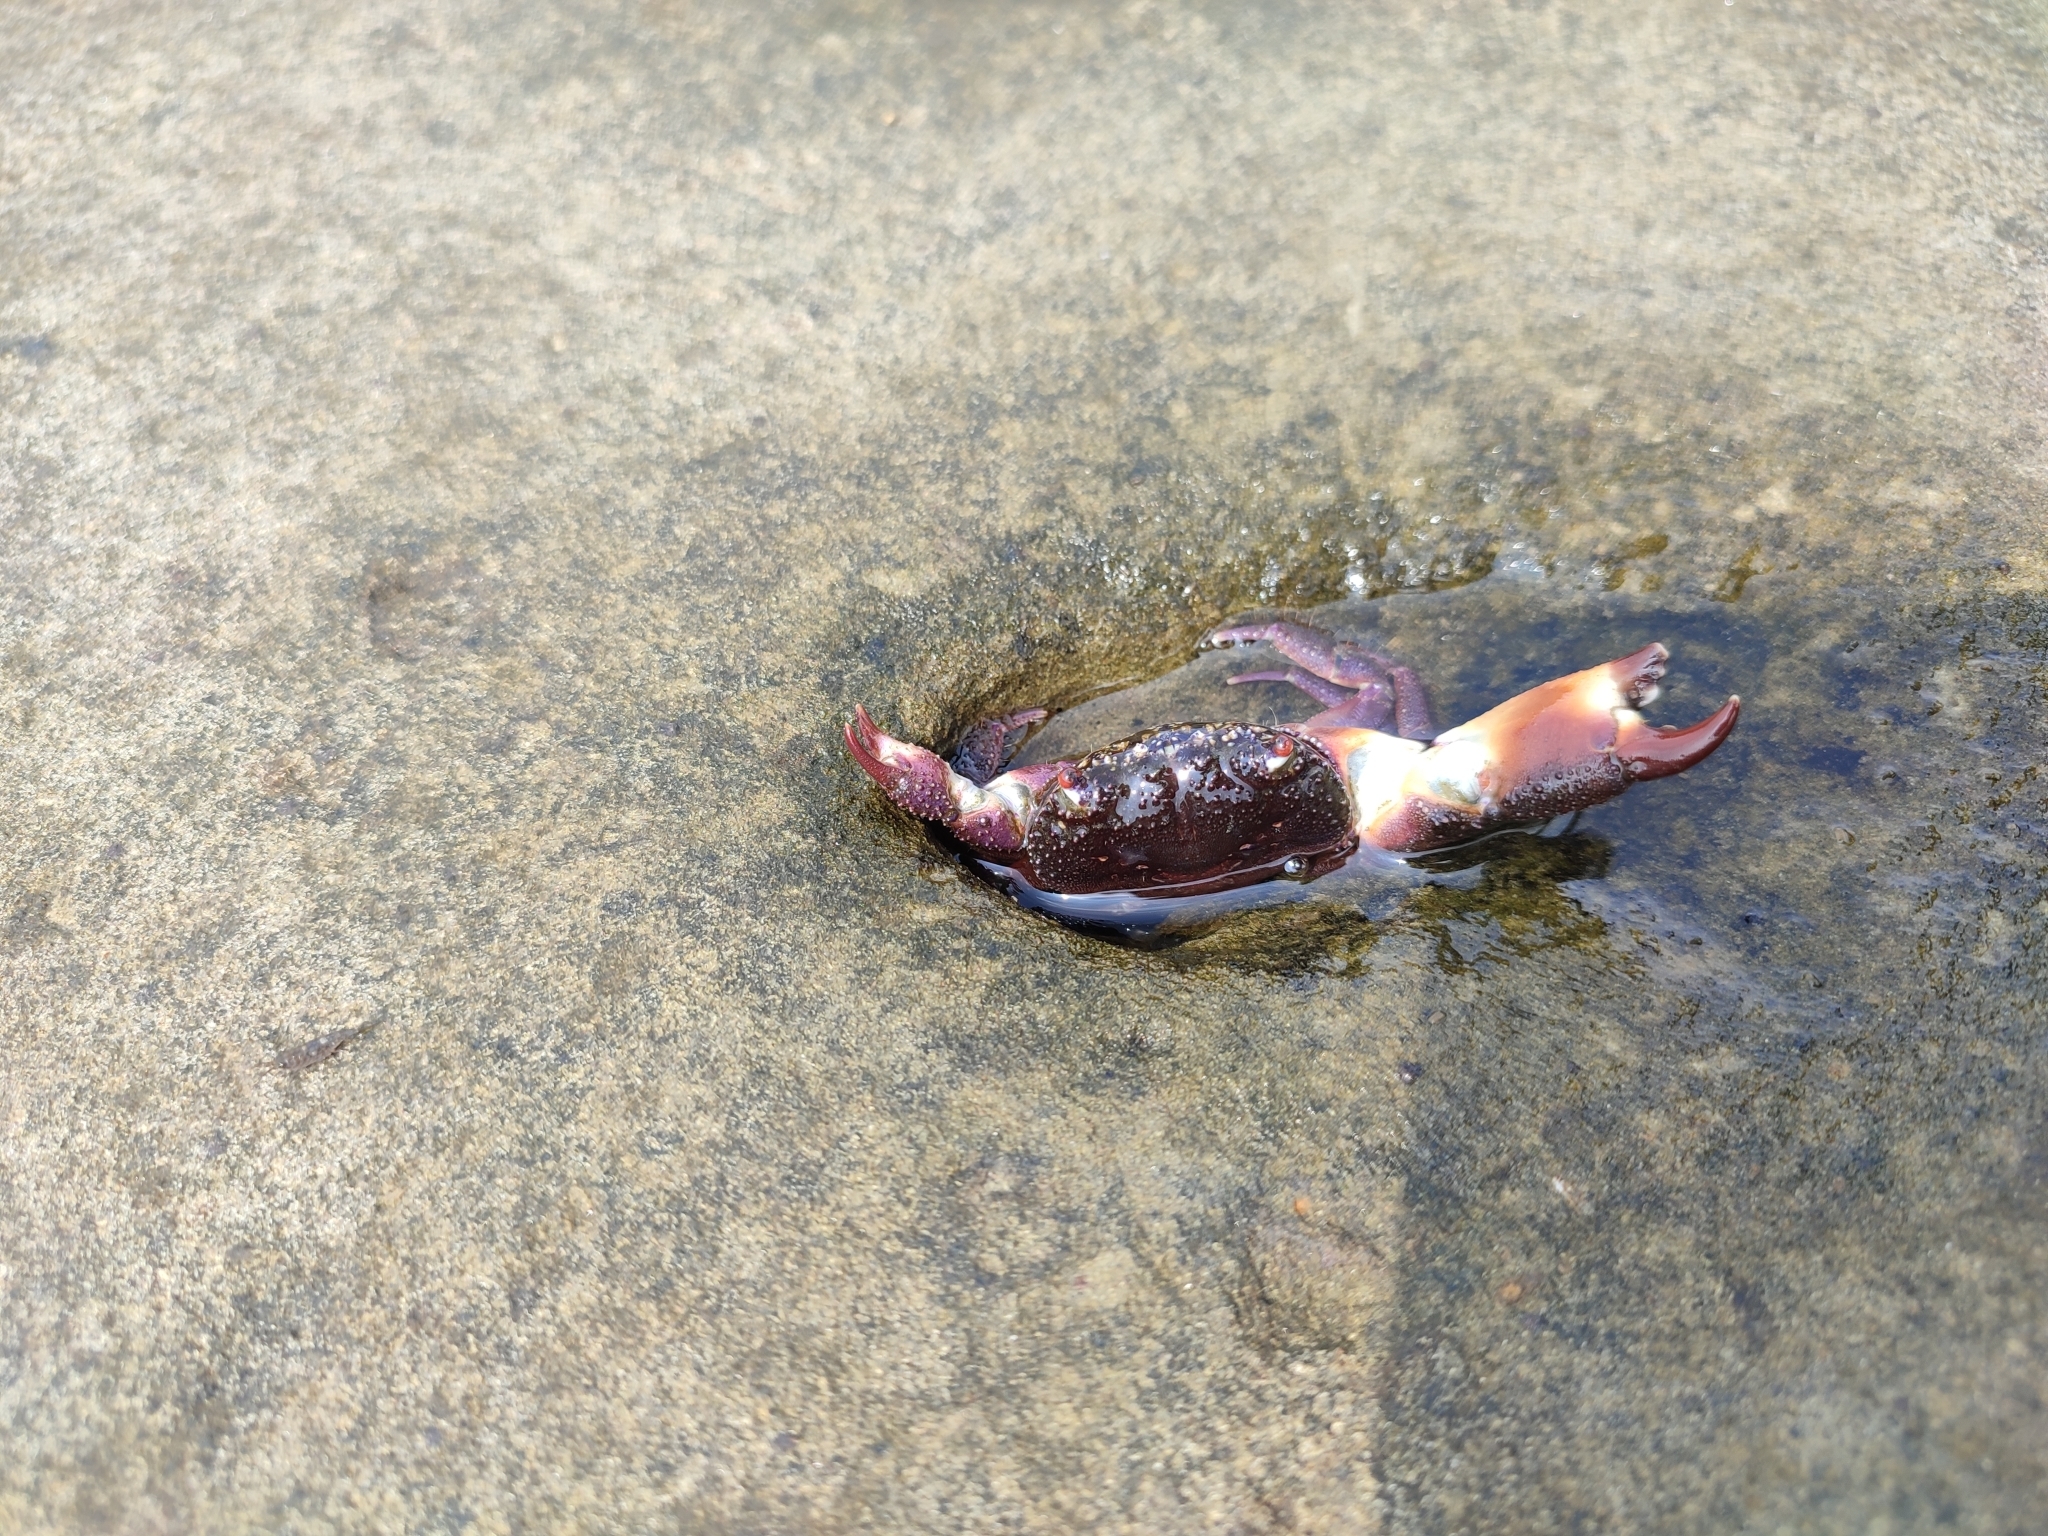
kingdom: Animalia
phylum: Arthropoda
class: Malacostraca
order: Decapoda
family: Eriphiidae
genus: Eriphia
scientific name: Eriphia ferox
